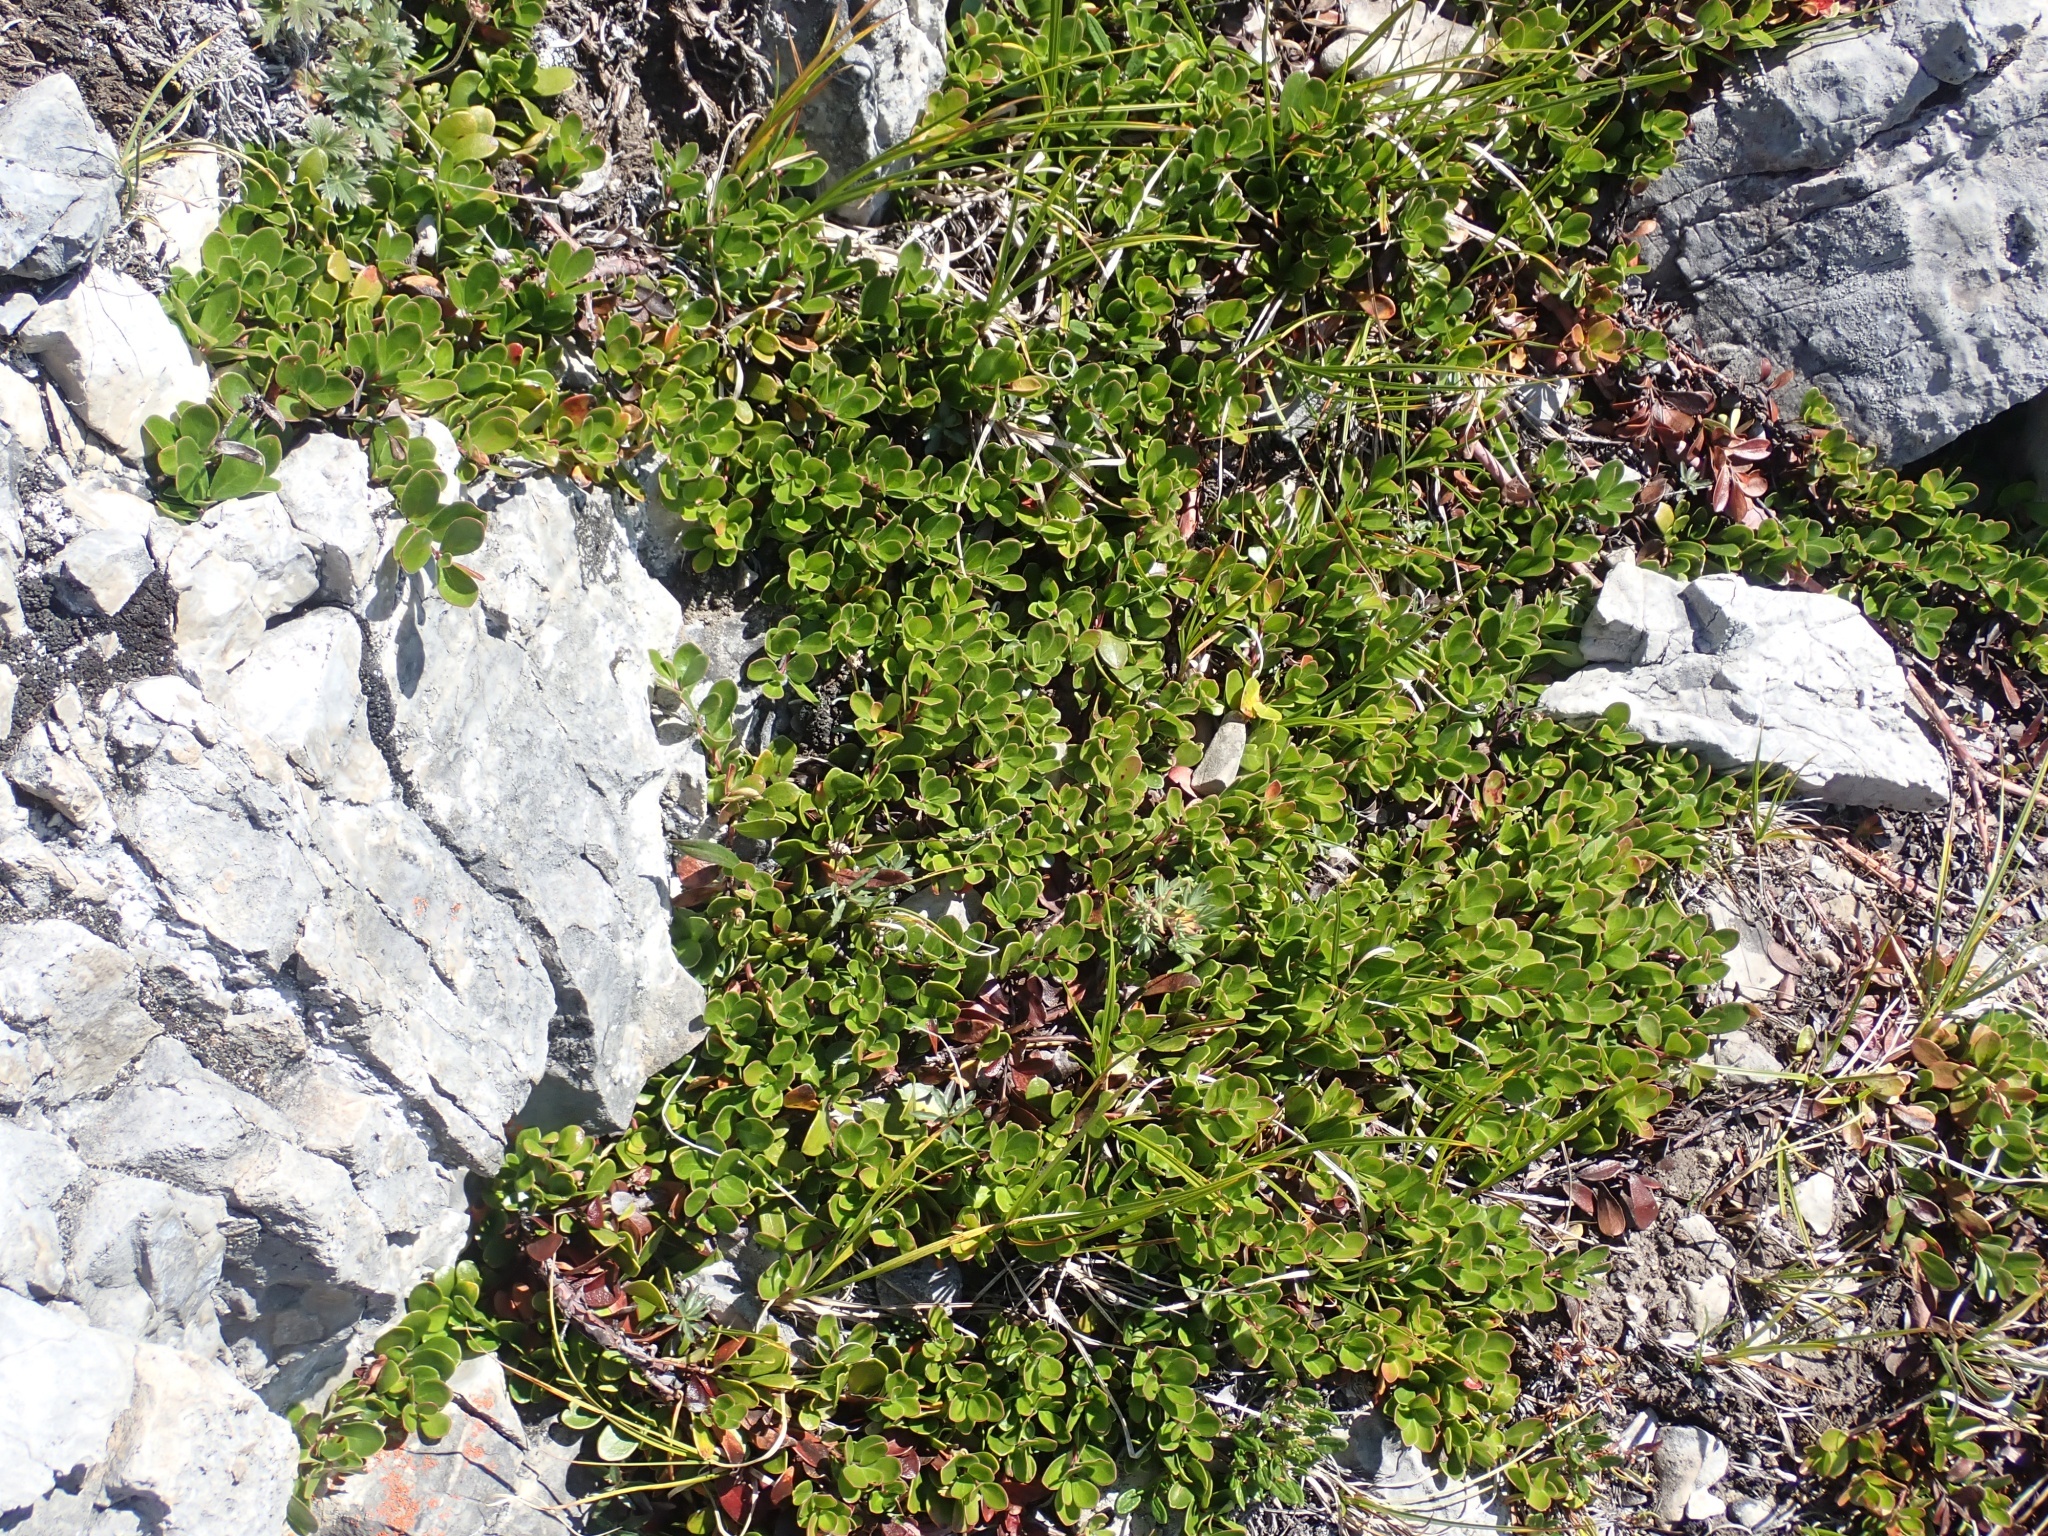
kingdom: Plantae
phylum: Tracheophyta
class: Magnoliopsida
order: Ericales
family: Ericaceae
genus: Arctostaphylos
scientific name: Arctostaphylos uva-ursi
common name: Bearberry
